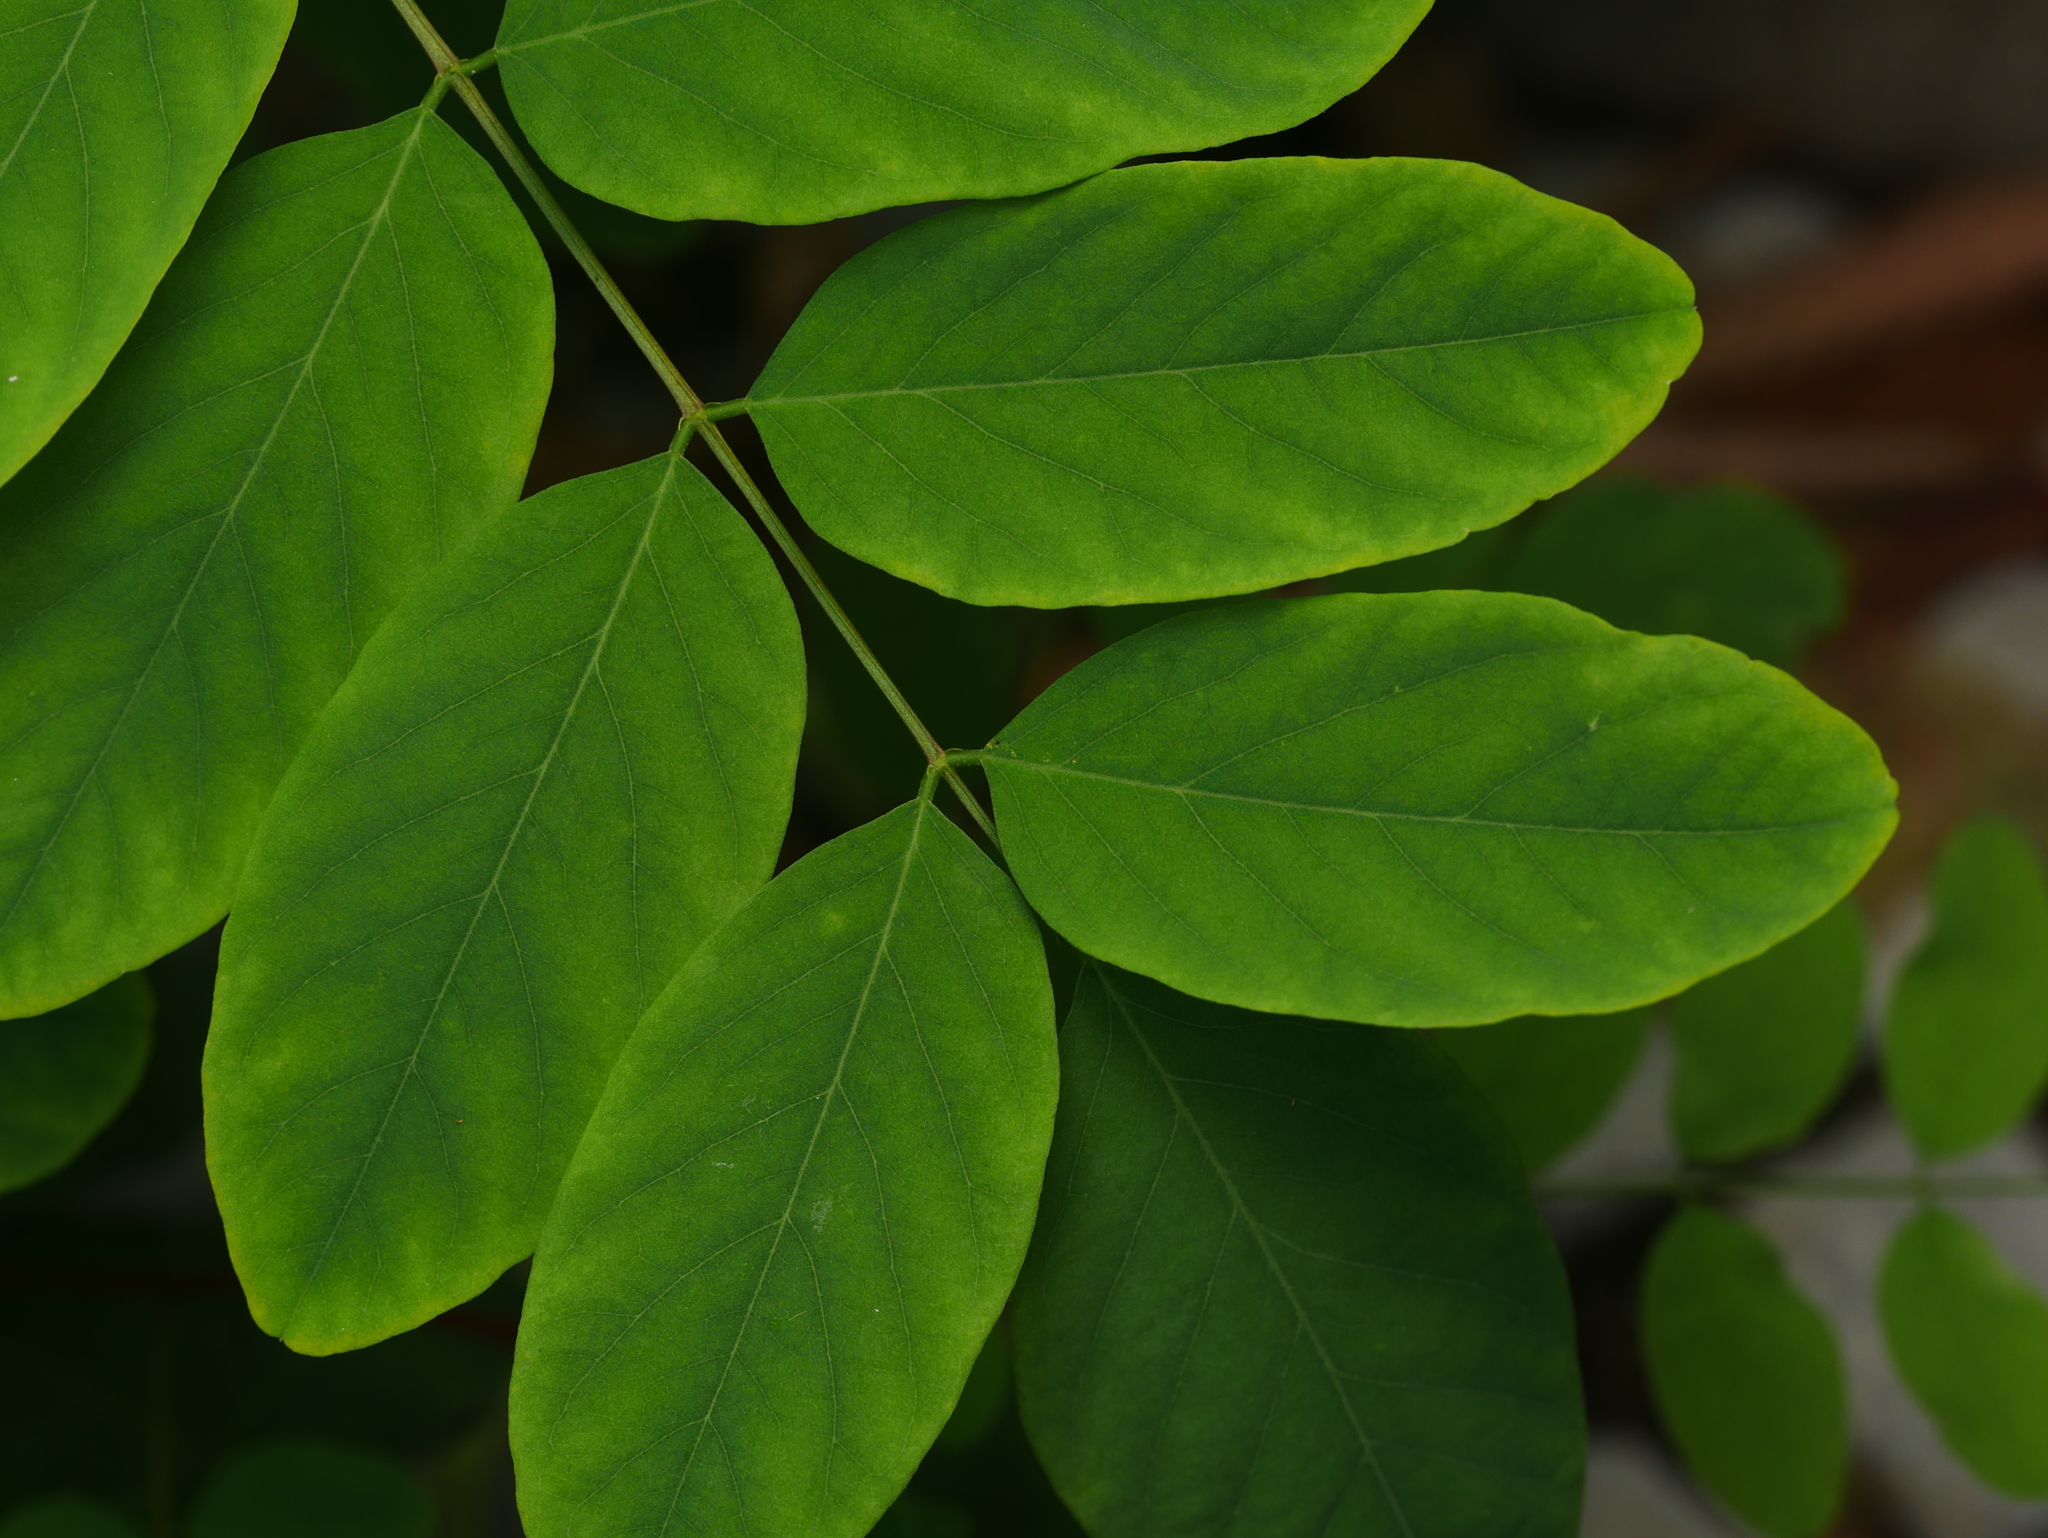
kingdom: Plantae
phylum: Tracheophyta
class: Magnoliopsida
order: Fabales
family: Fabaceae
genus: Robinia
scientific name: Robinia pseudoacacia
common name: Black locust
